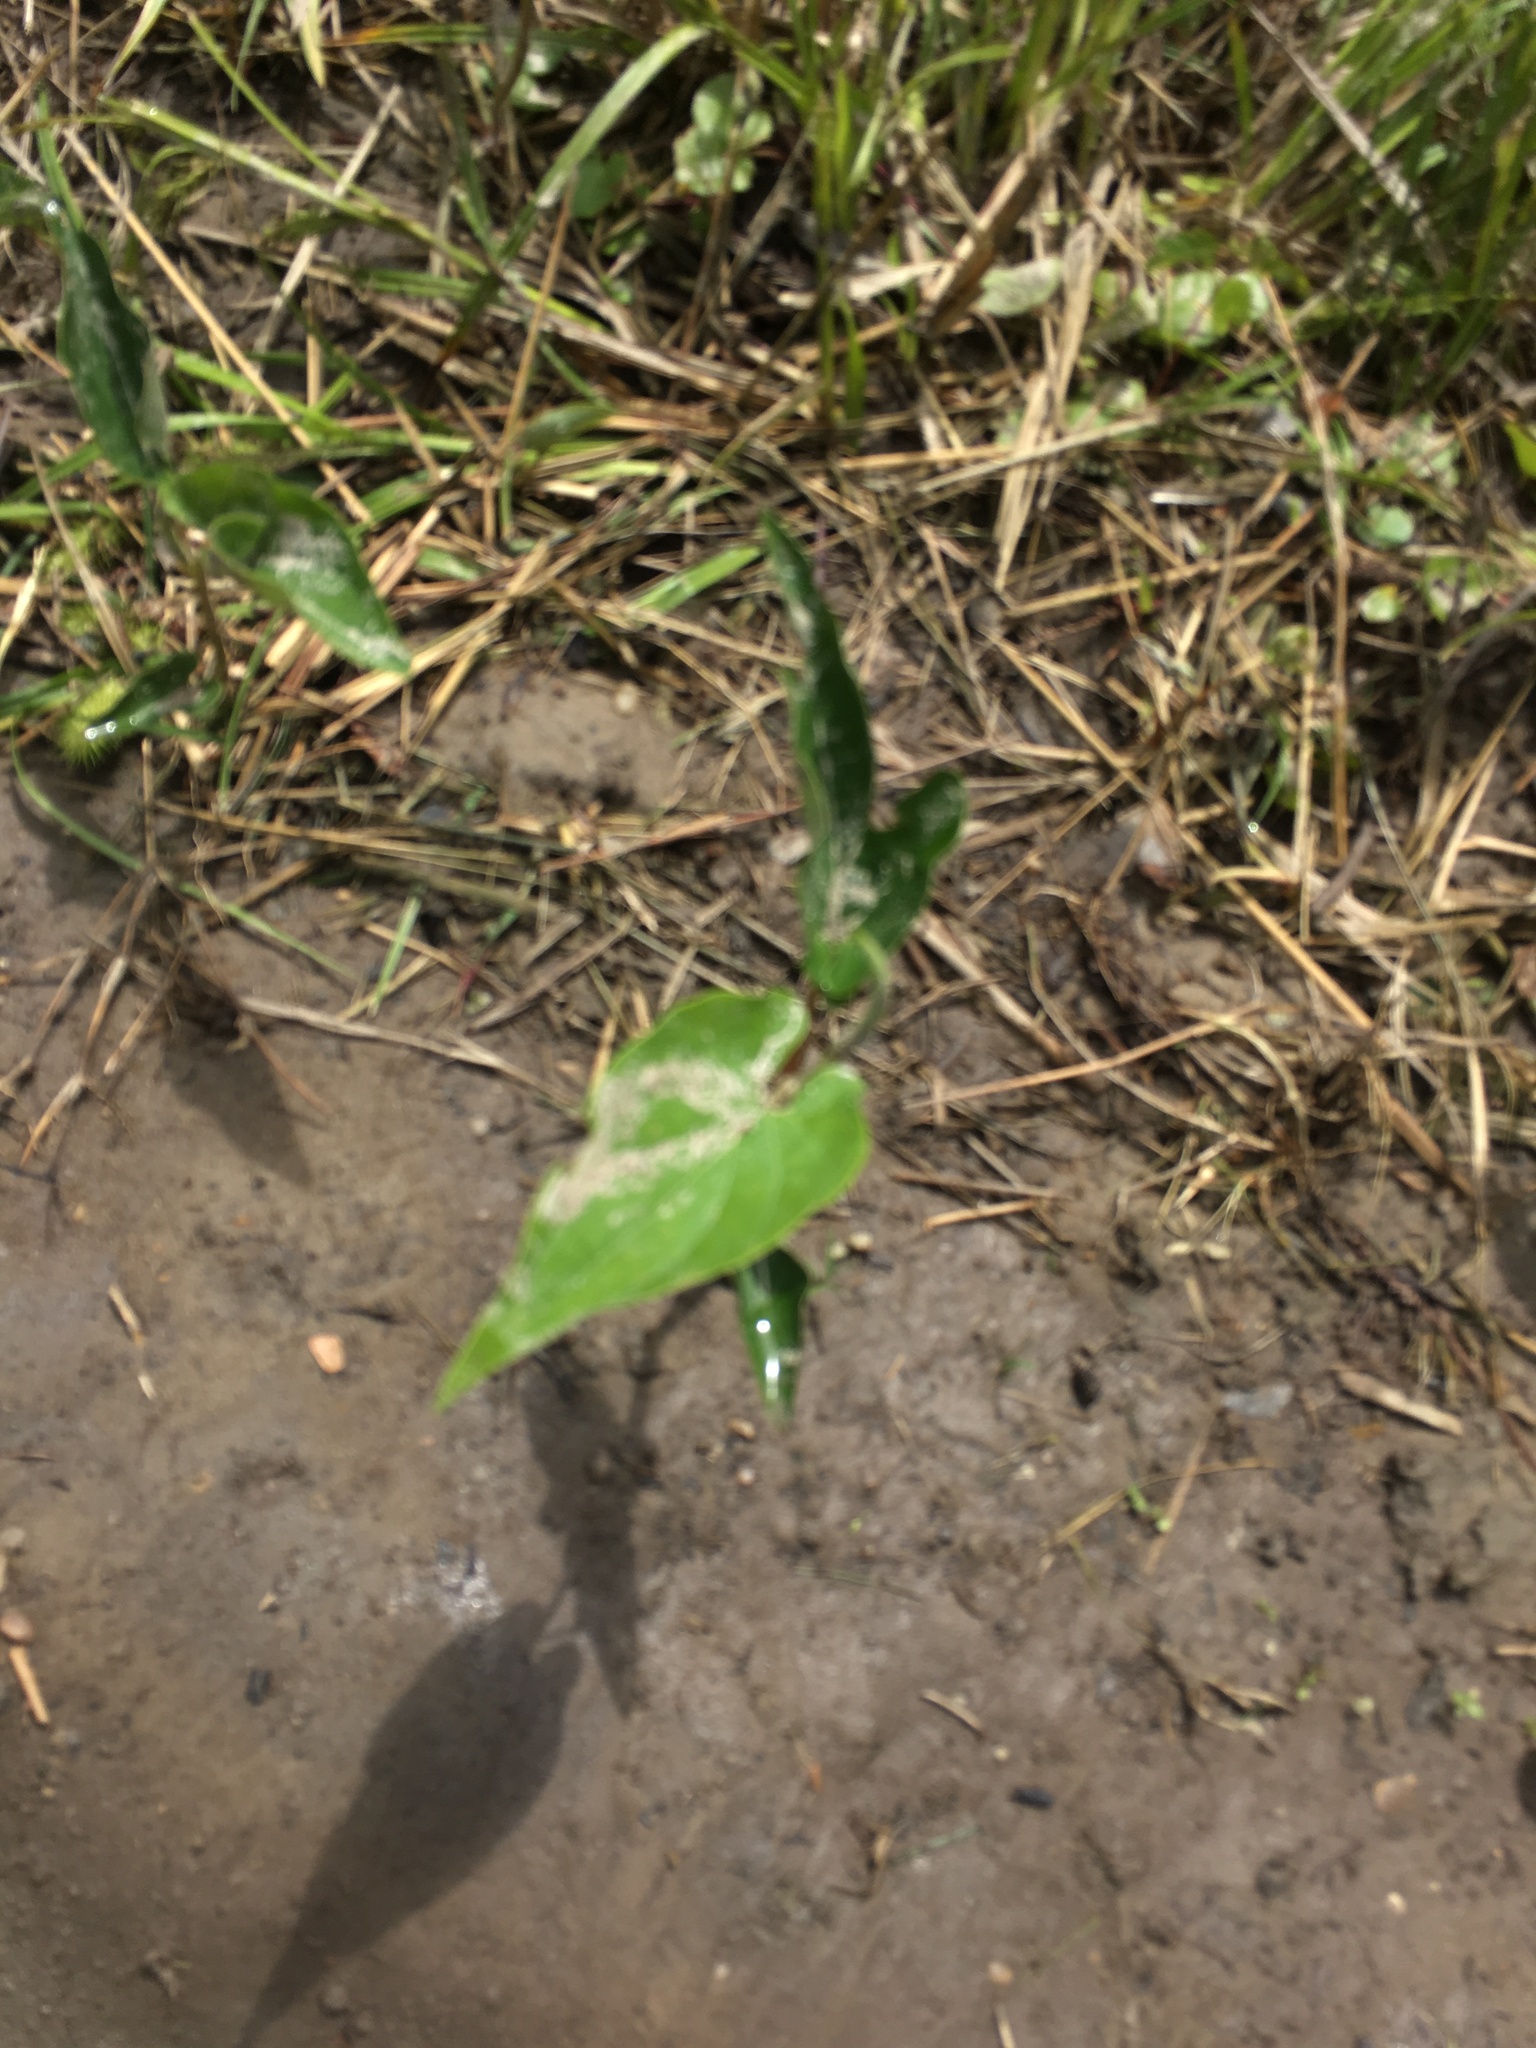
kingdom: Plantae
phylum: Tracheophyta
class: Magnoliopsida
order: Piperales
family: Saururaceae
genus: Saururus
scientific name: Saururus cernuus
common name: Lizard's-tail
